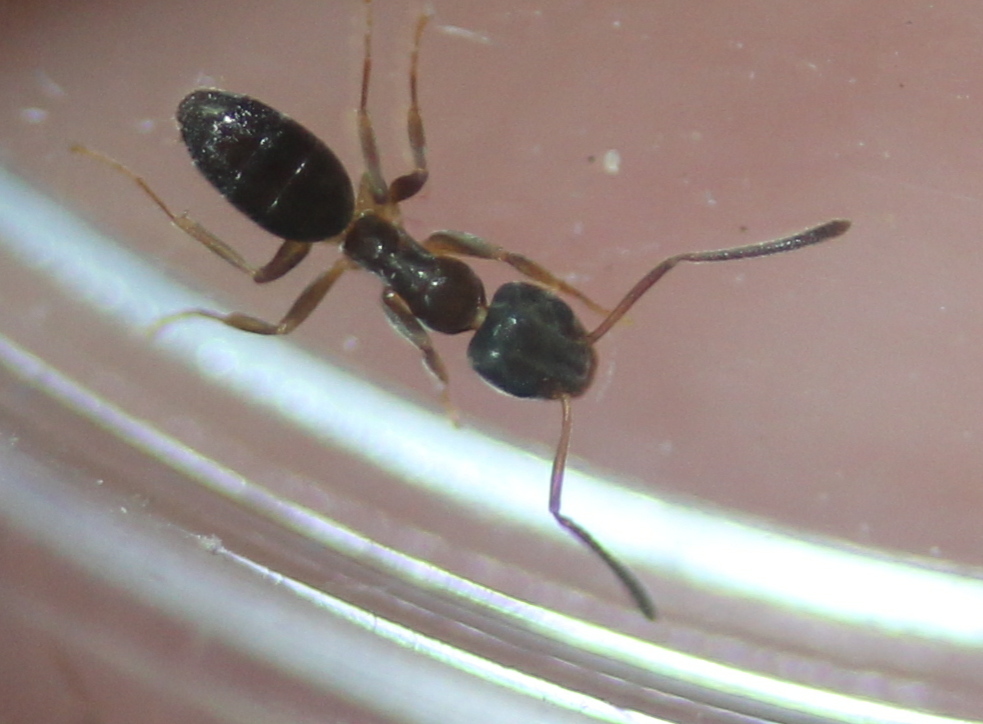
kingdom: Animalia
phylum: Arthropoda
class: Insecta
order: Hymenoptera
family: Formicidae
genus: Tapinoma
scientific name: Tapinoma sessile
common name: Odorous house ant
